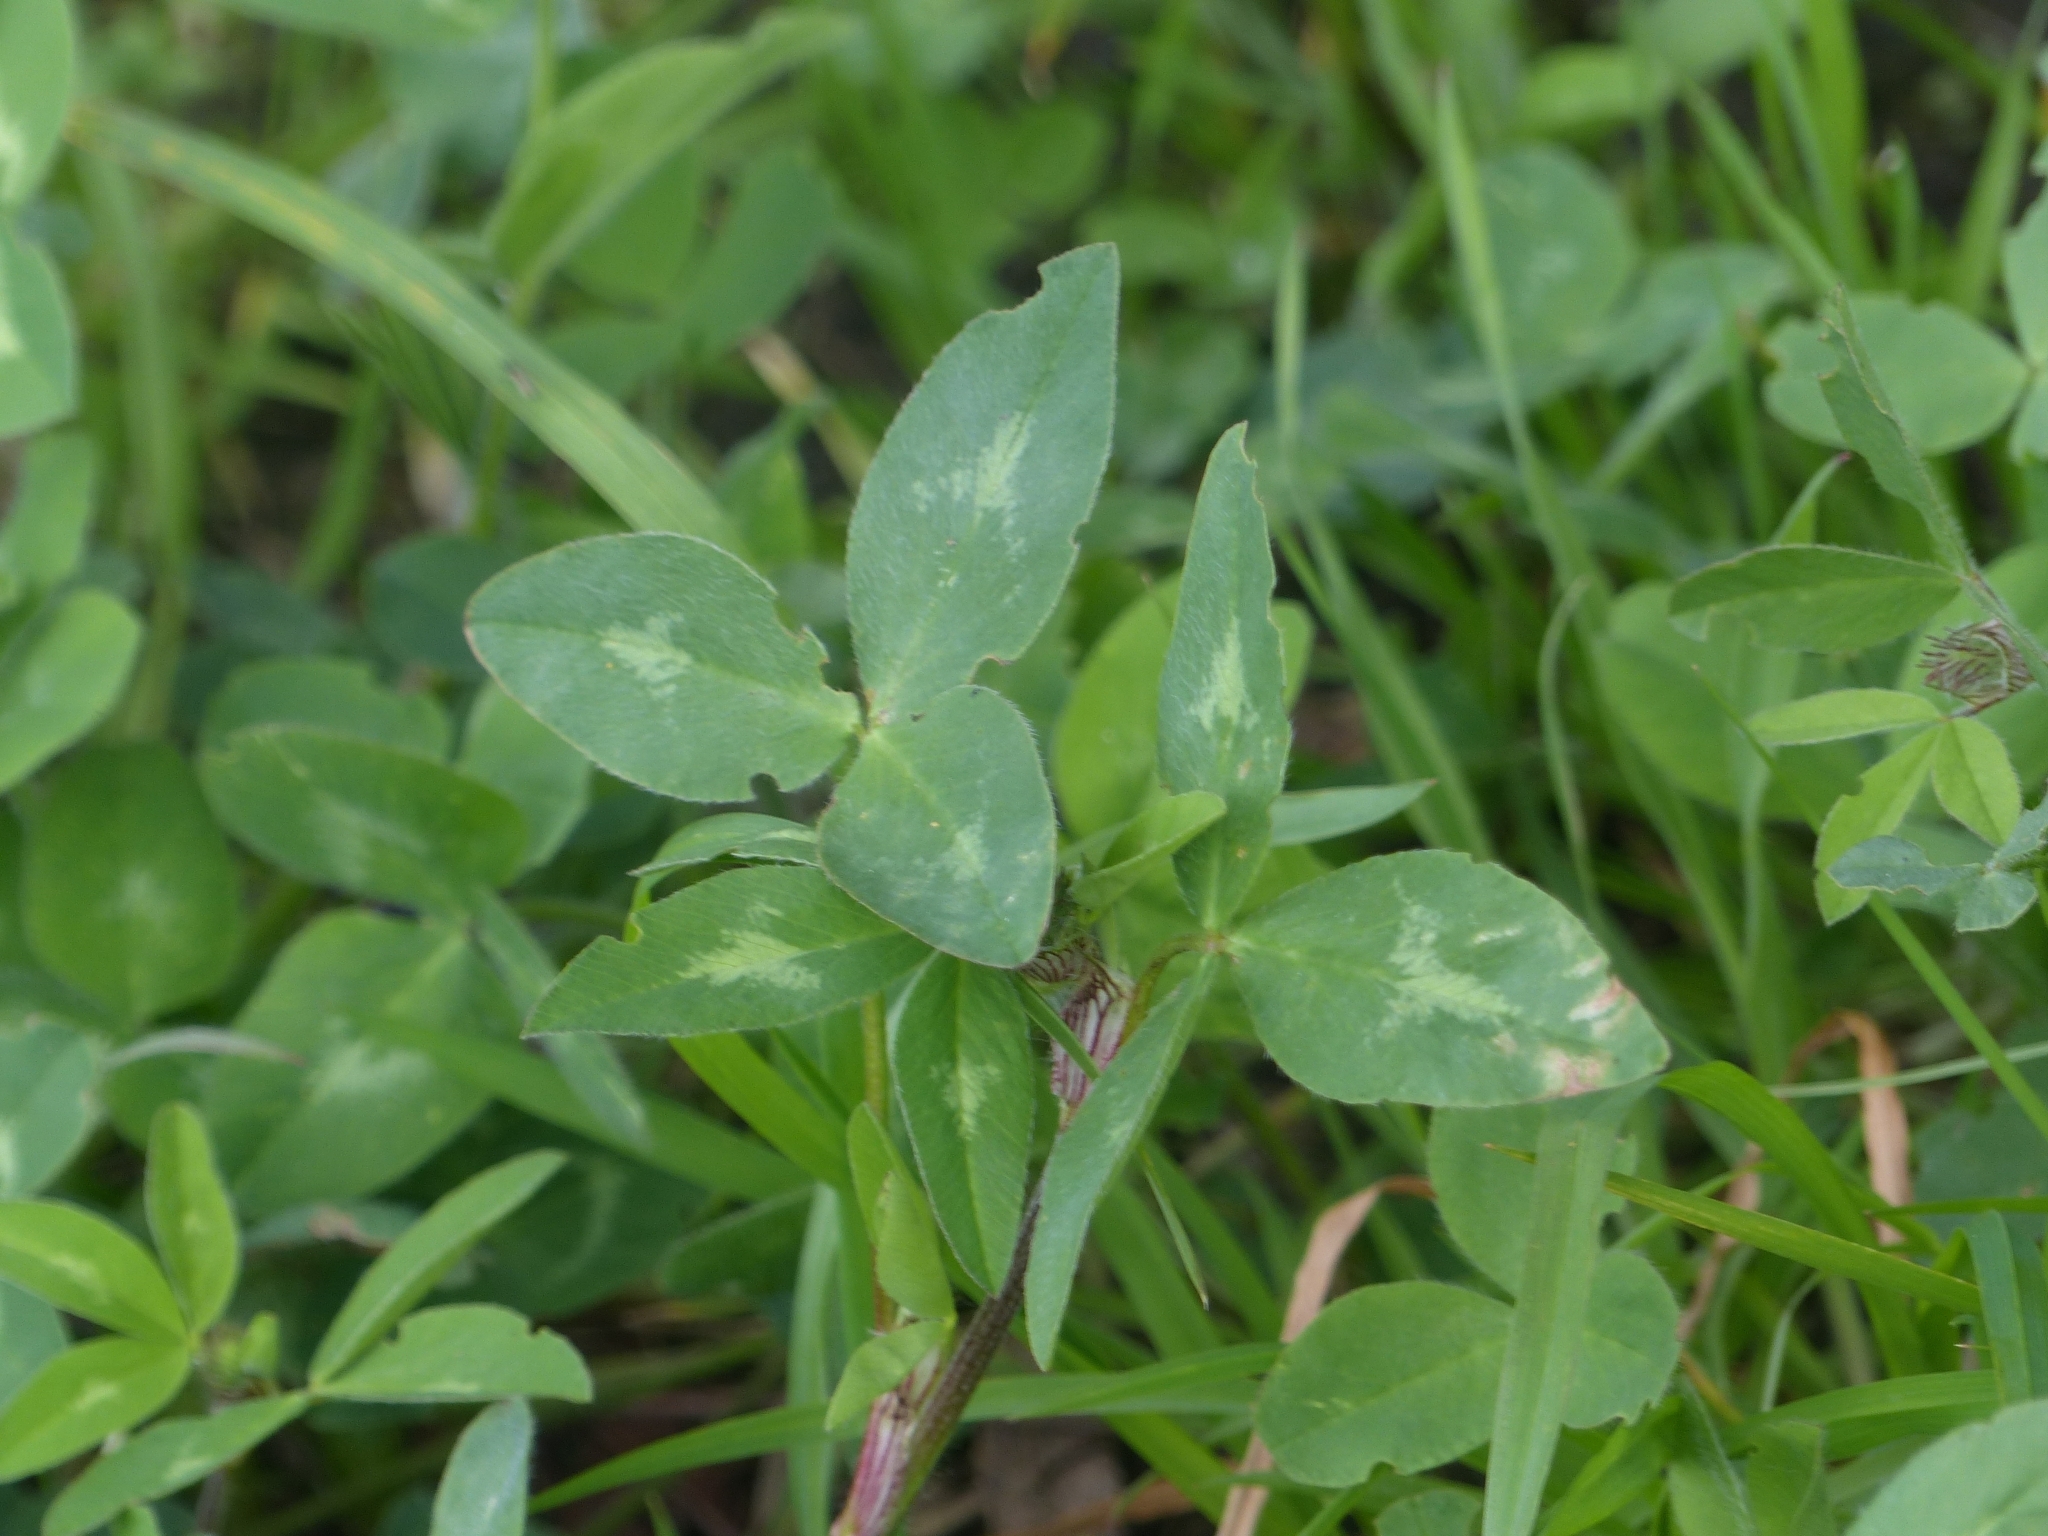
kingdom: Plantae
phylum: Tracheophyta
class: Magnoliopsida
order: Fabales
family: Fabaceae
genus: Trifolium
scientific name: Trifolium pratense
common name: Red clover
